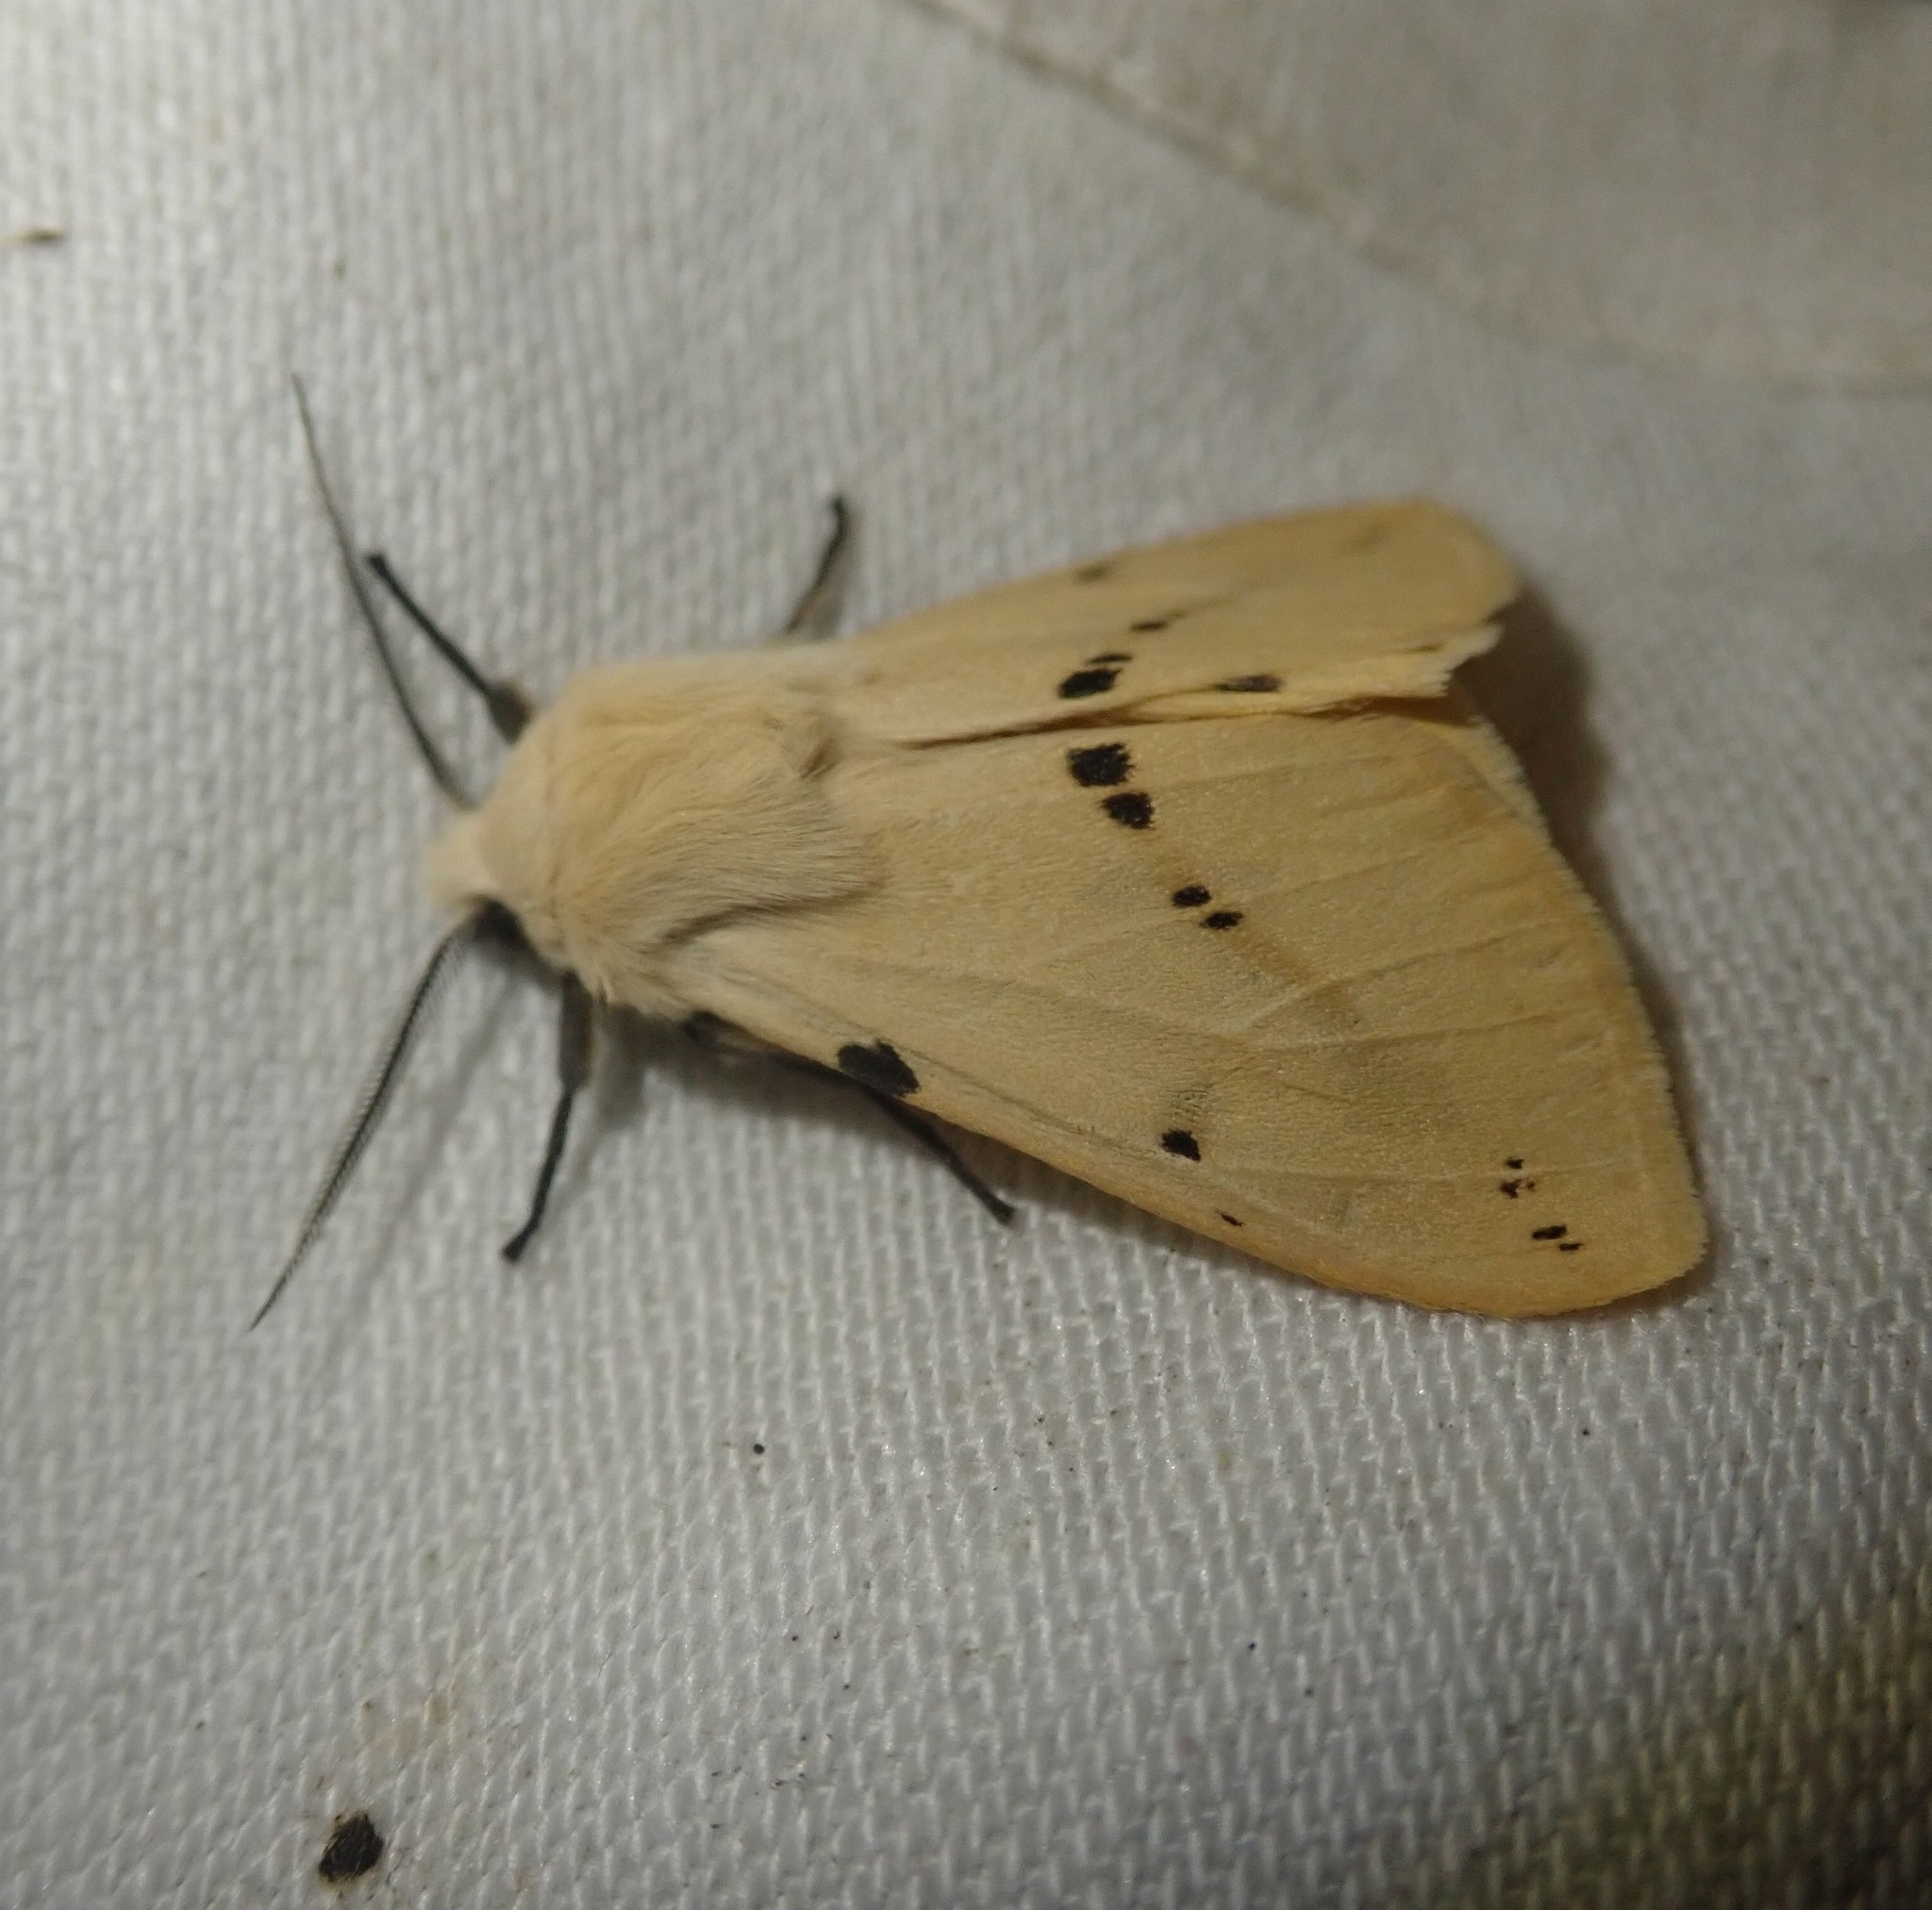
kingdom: Animalia
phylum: Arthropoda
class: Insecta
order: Lepidoptera
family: Erebidae
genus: Spilarctia
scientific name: Spilarctia lutea
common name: Buff ermine
